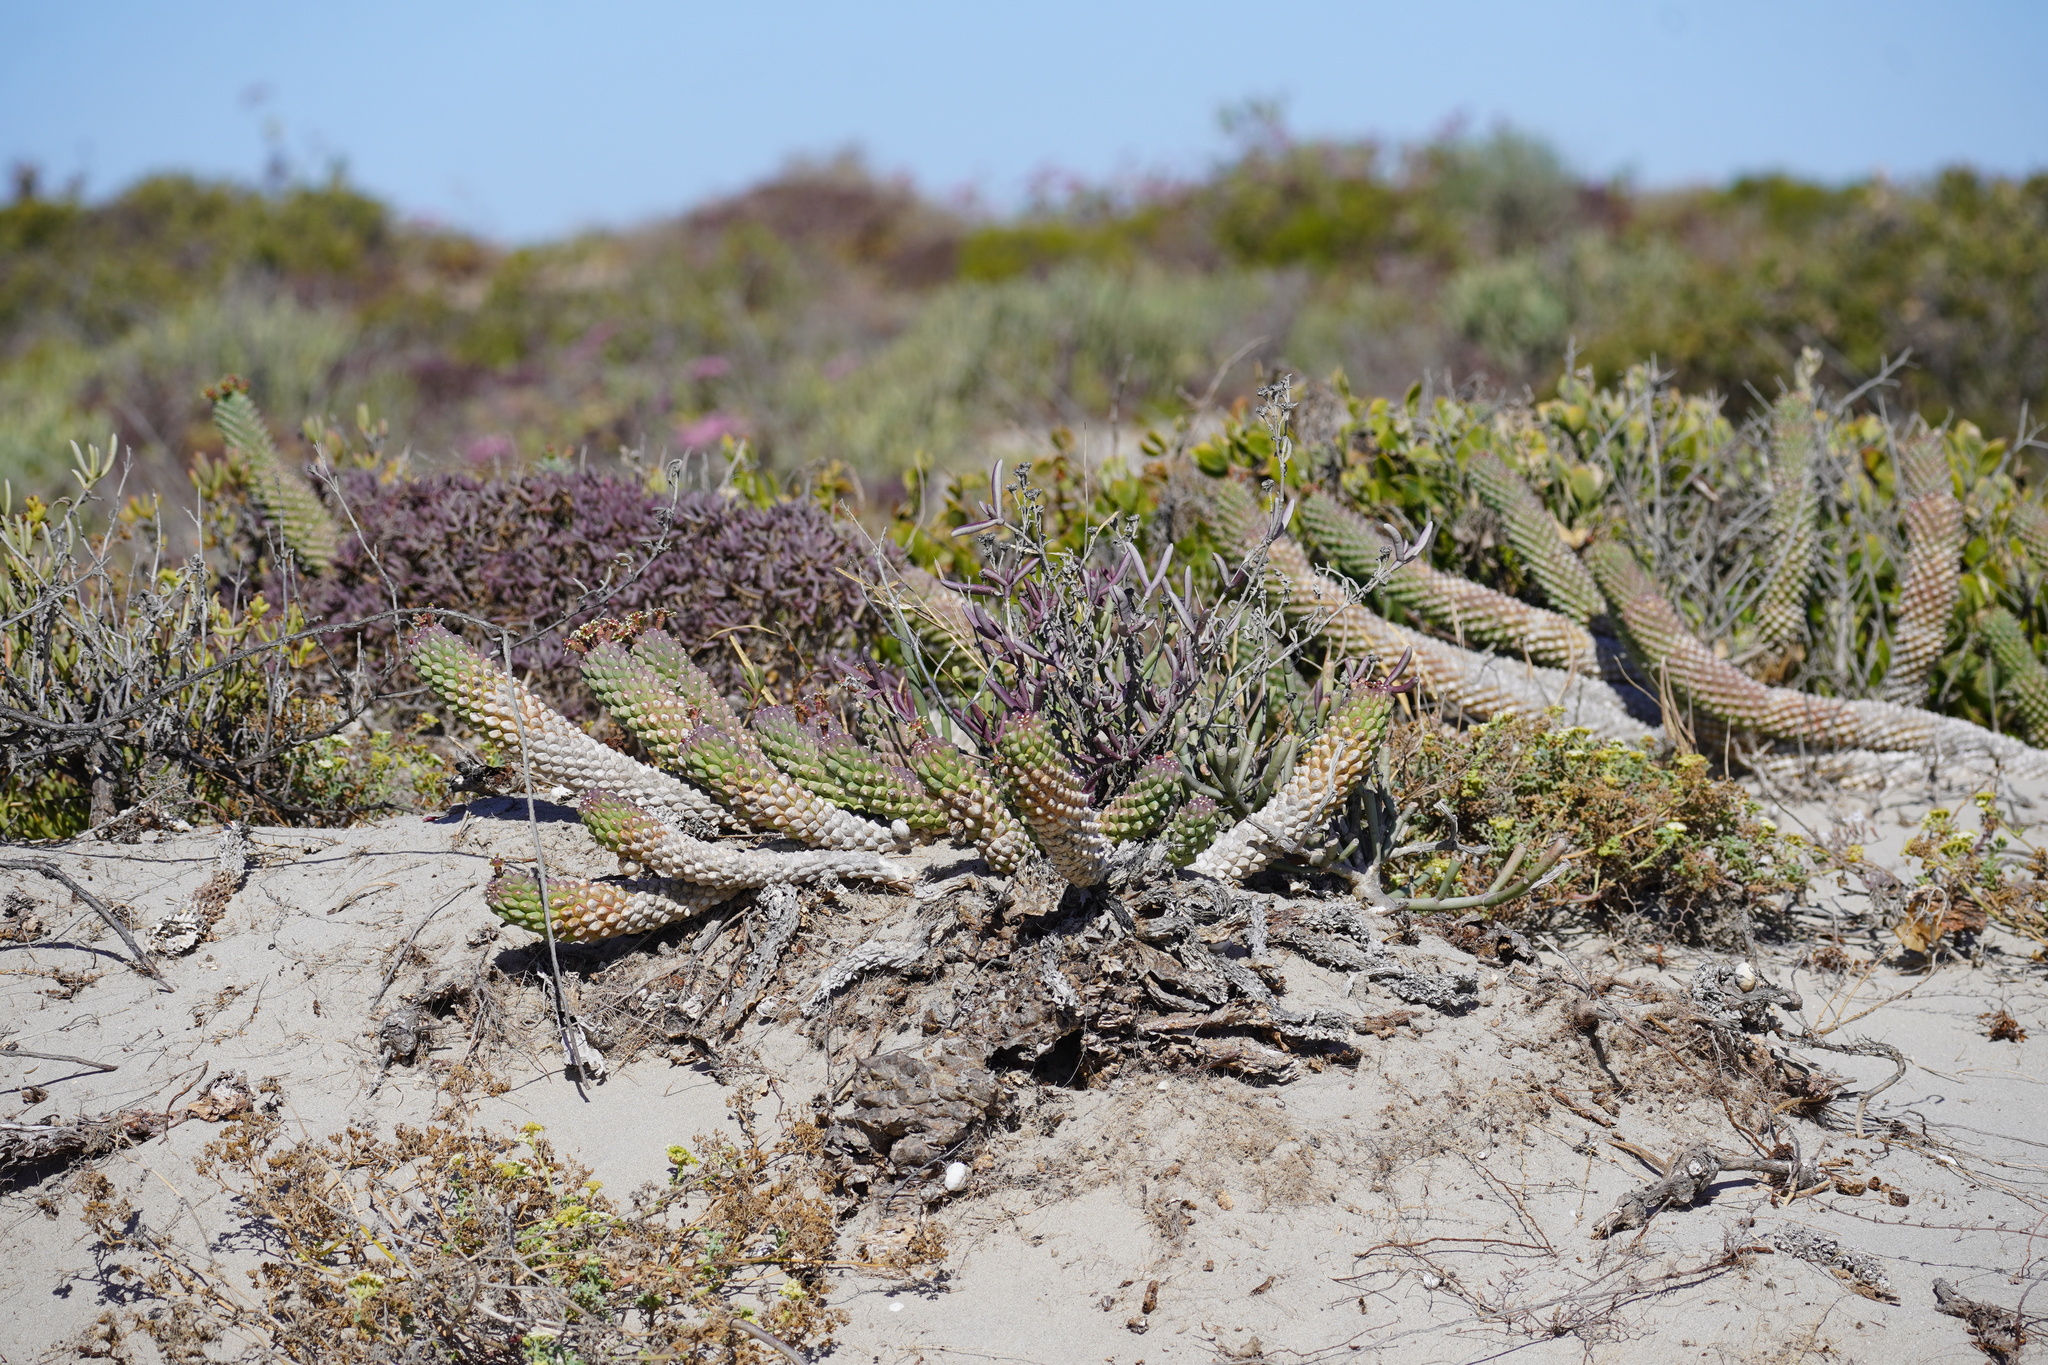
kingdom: Plantae
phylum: Tracheophyta
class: Magnoliopsida
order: Malpighiales
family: Euphorbiaceae
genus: Euphorbia
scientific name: Euphorbia caput-medusae
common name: Medusa's-head
